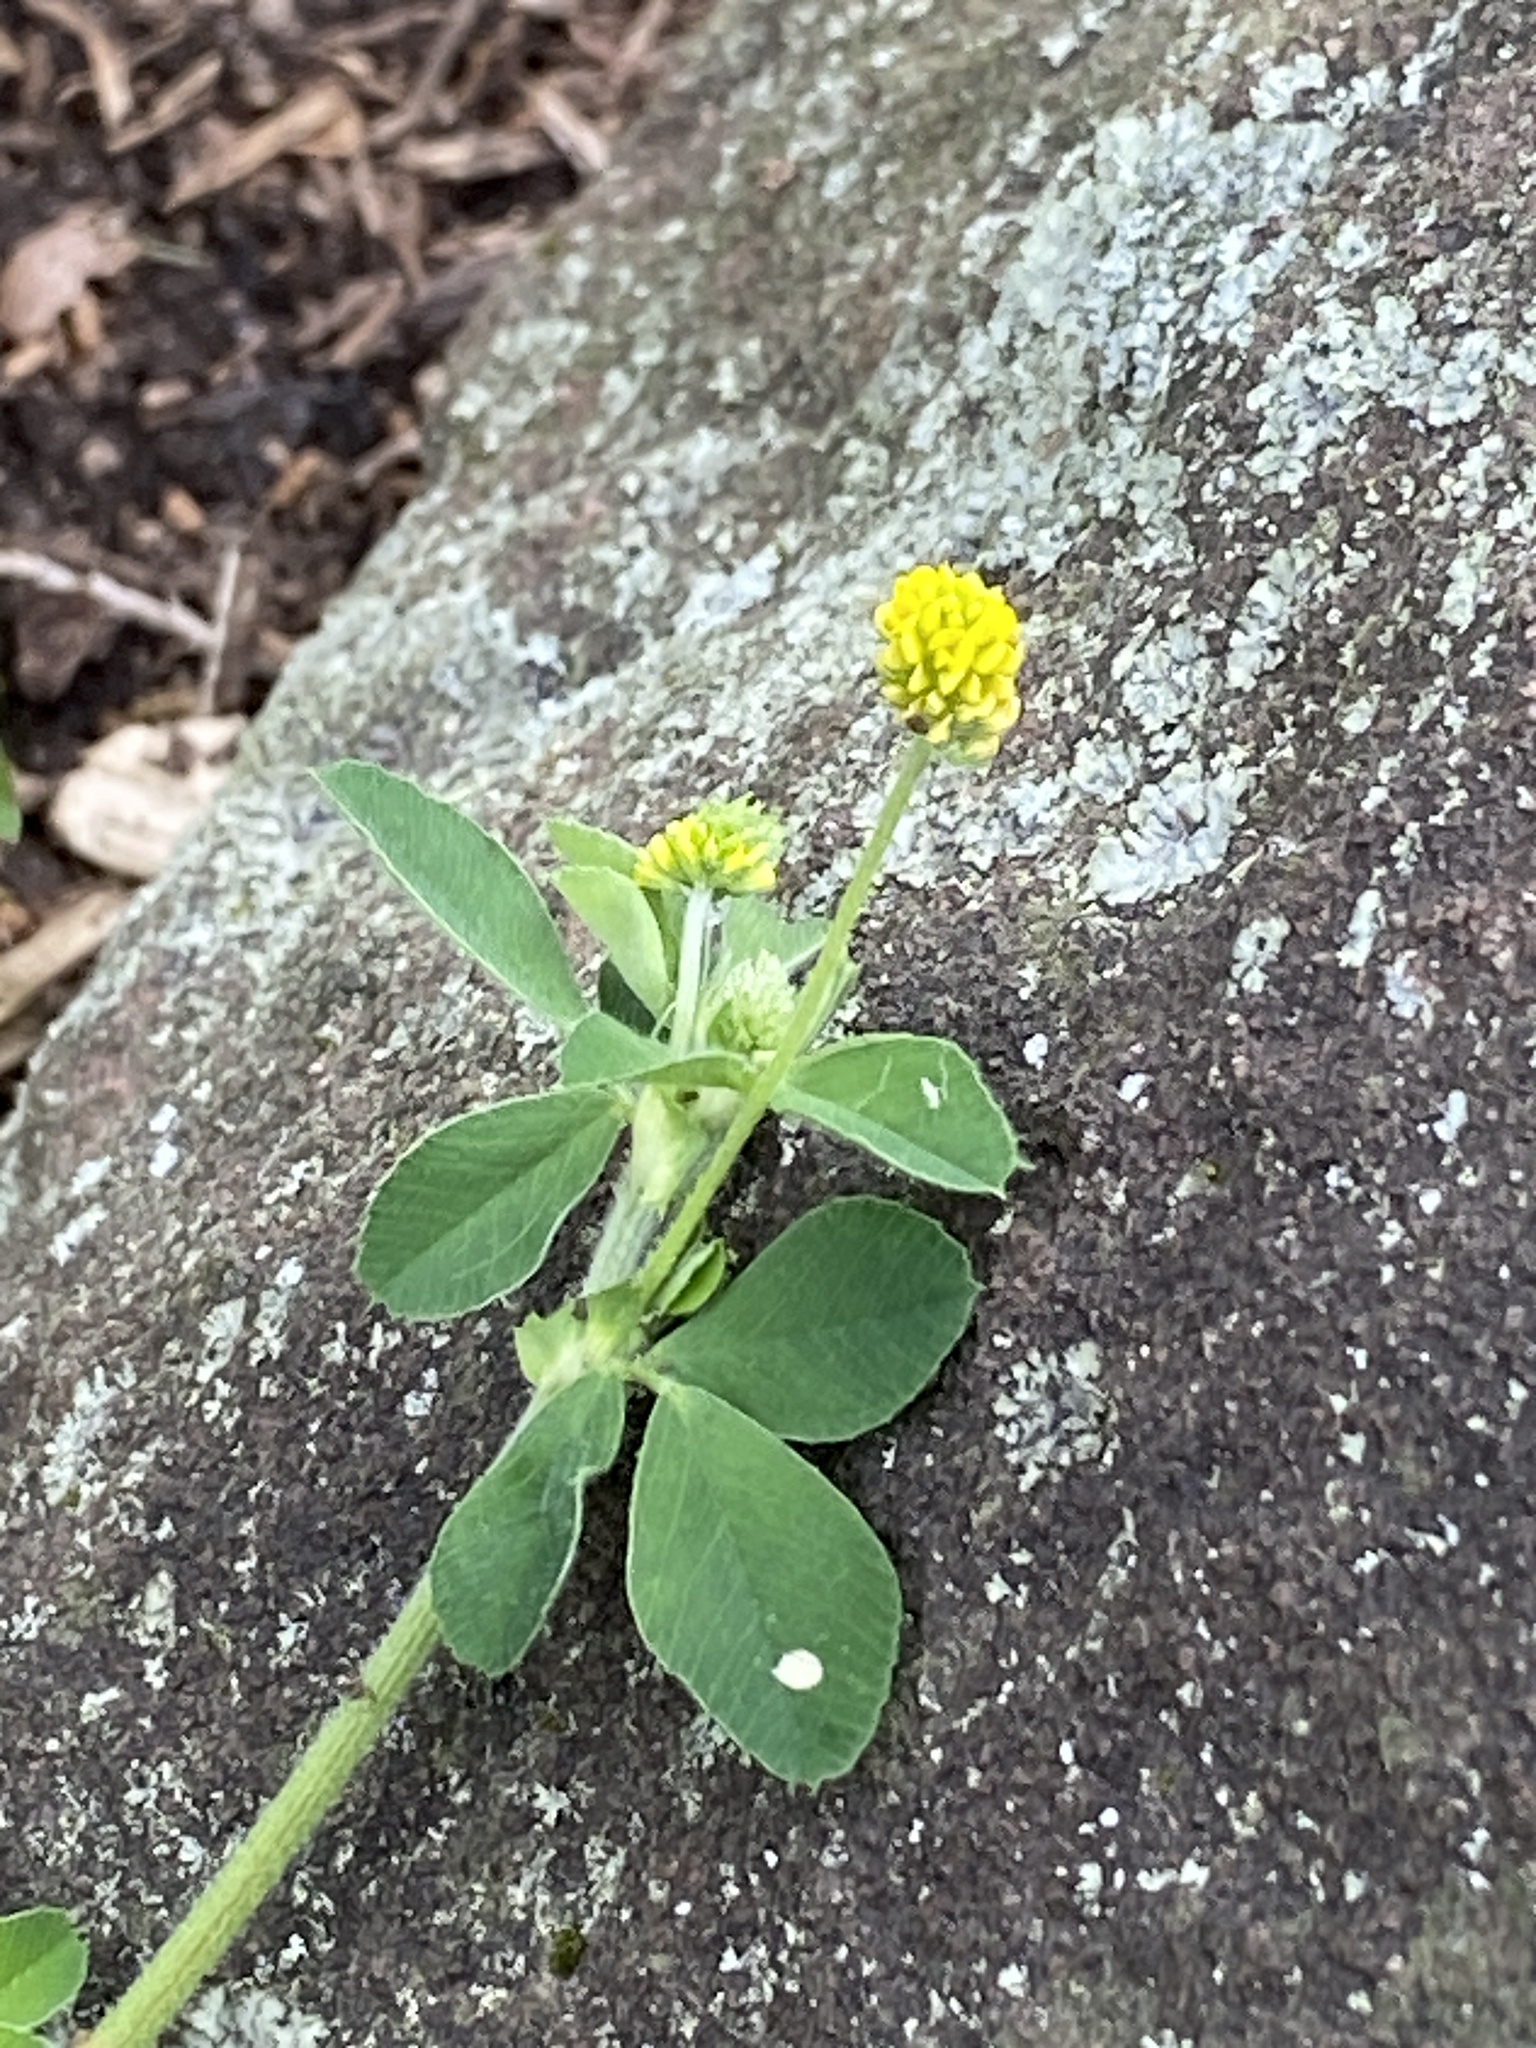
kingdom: Plantae
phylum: Tracheophyta
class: Magnoliopsida
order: Fabales
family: Fabaceae
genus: Medicago
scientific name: Medicago lupulina
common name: Black medick
